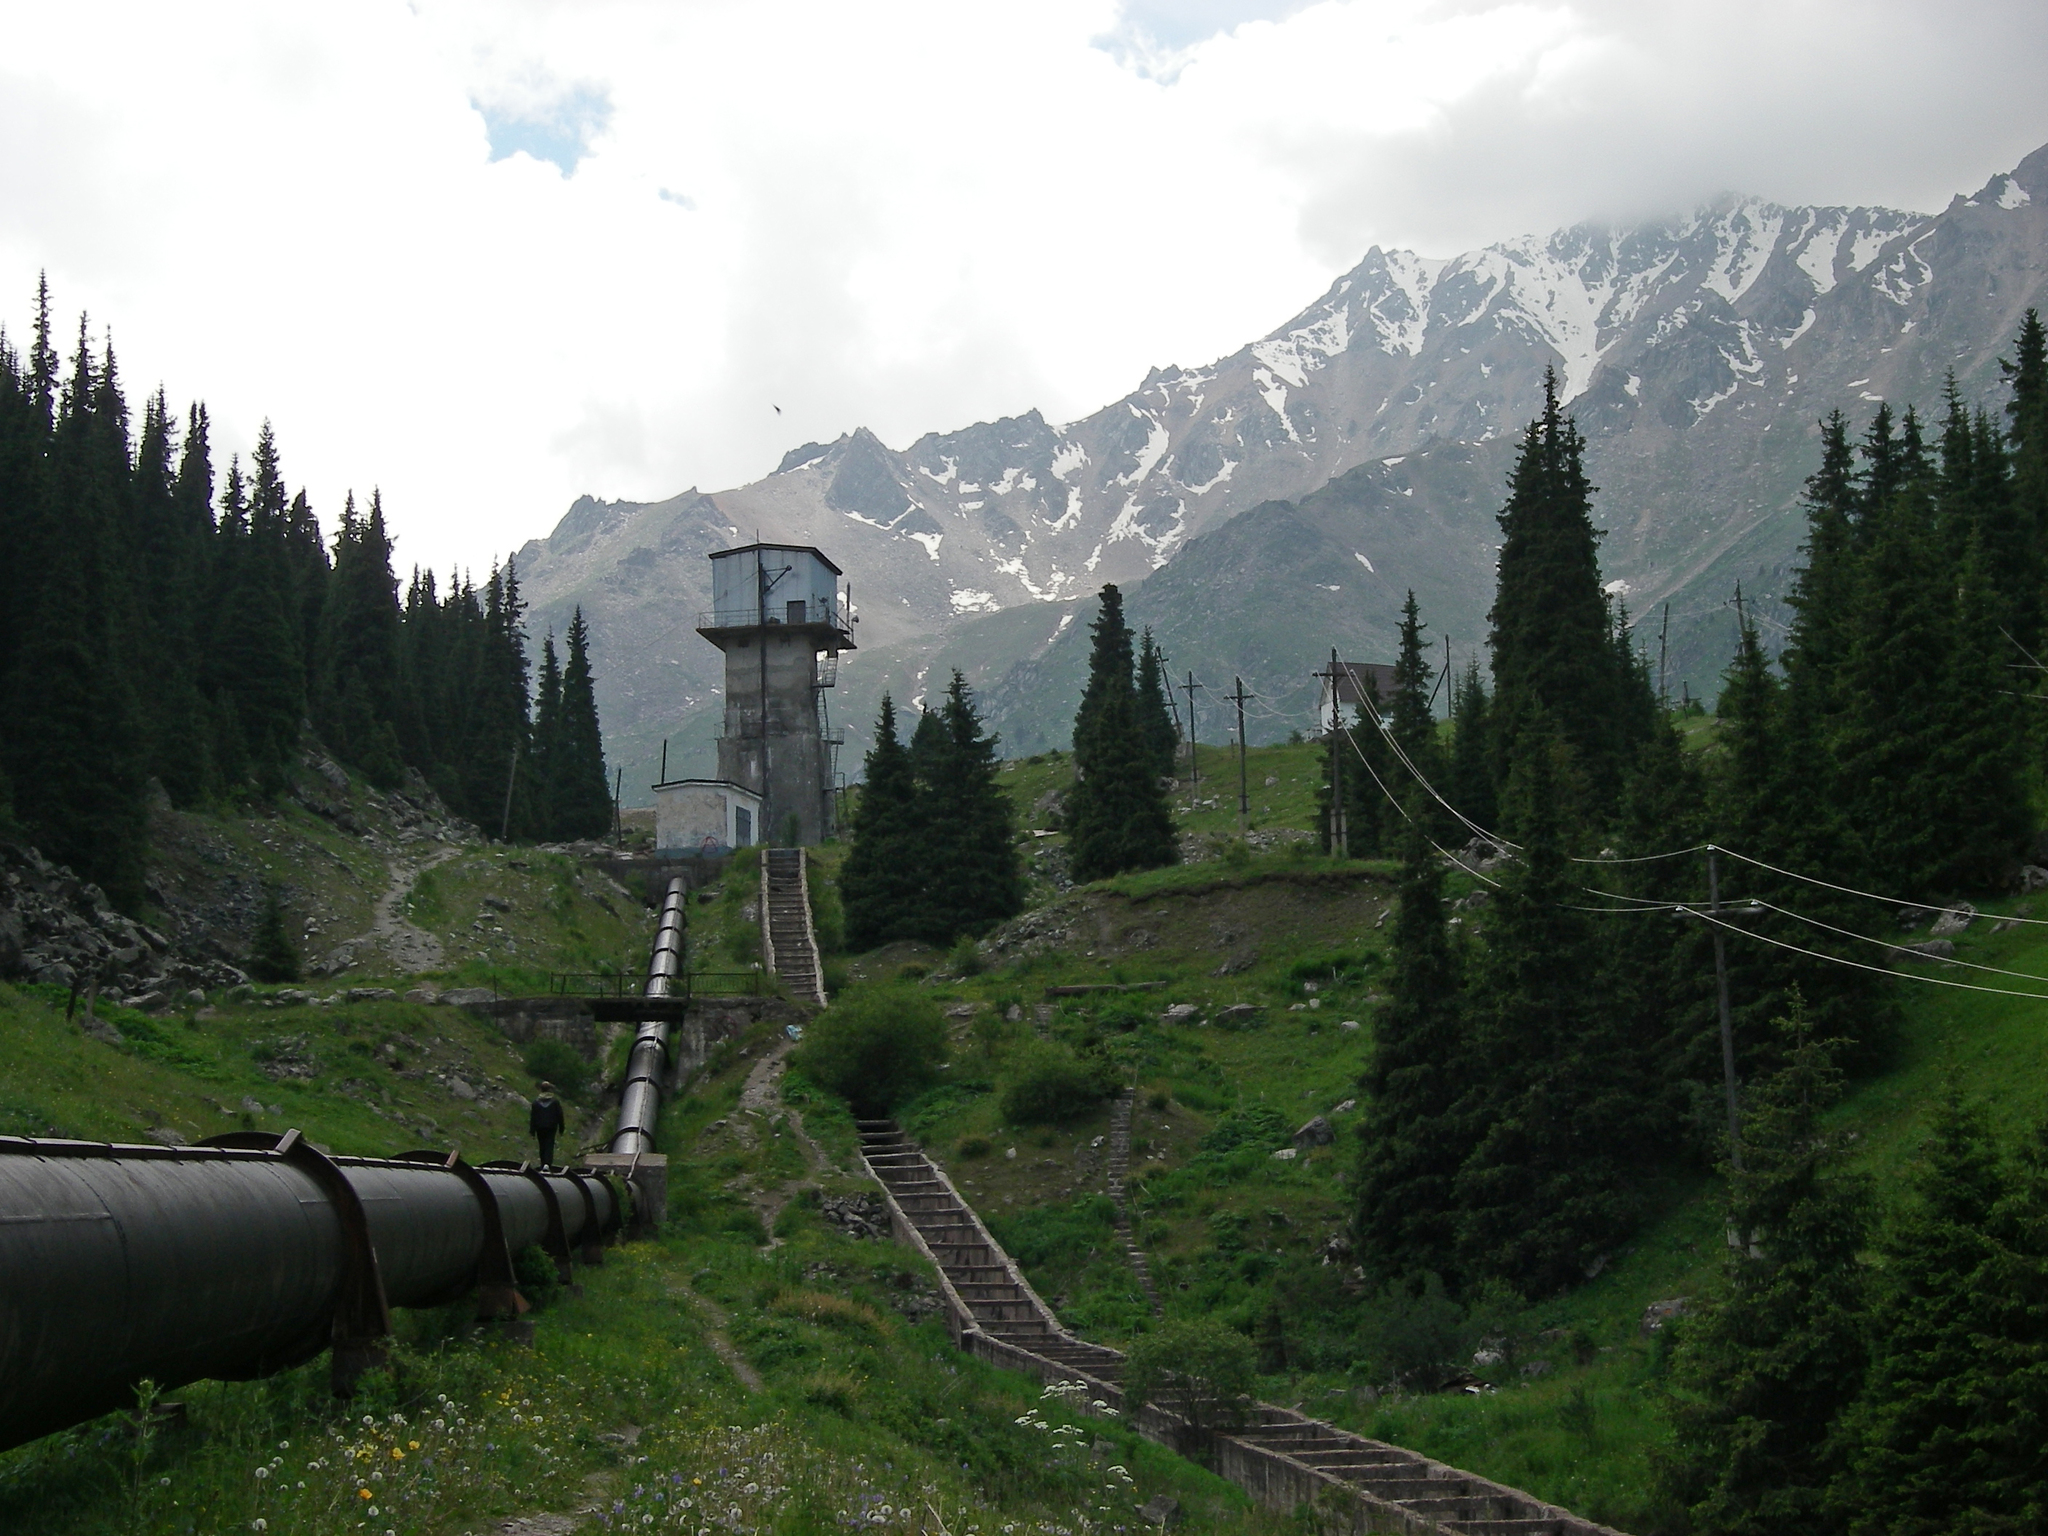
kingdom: Plantae
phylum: Tracheophyta
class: Pinopsida
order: Pinales
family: Pinaceae
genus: Picea
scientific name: Picea schrenkiana
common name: Asian spruce
